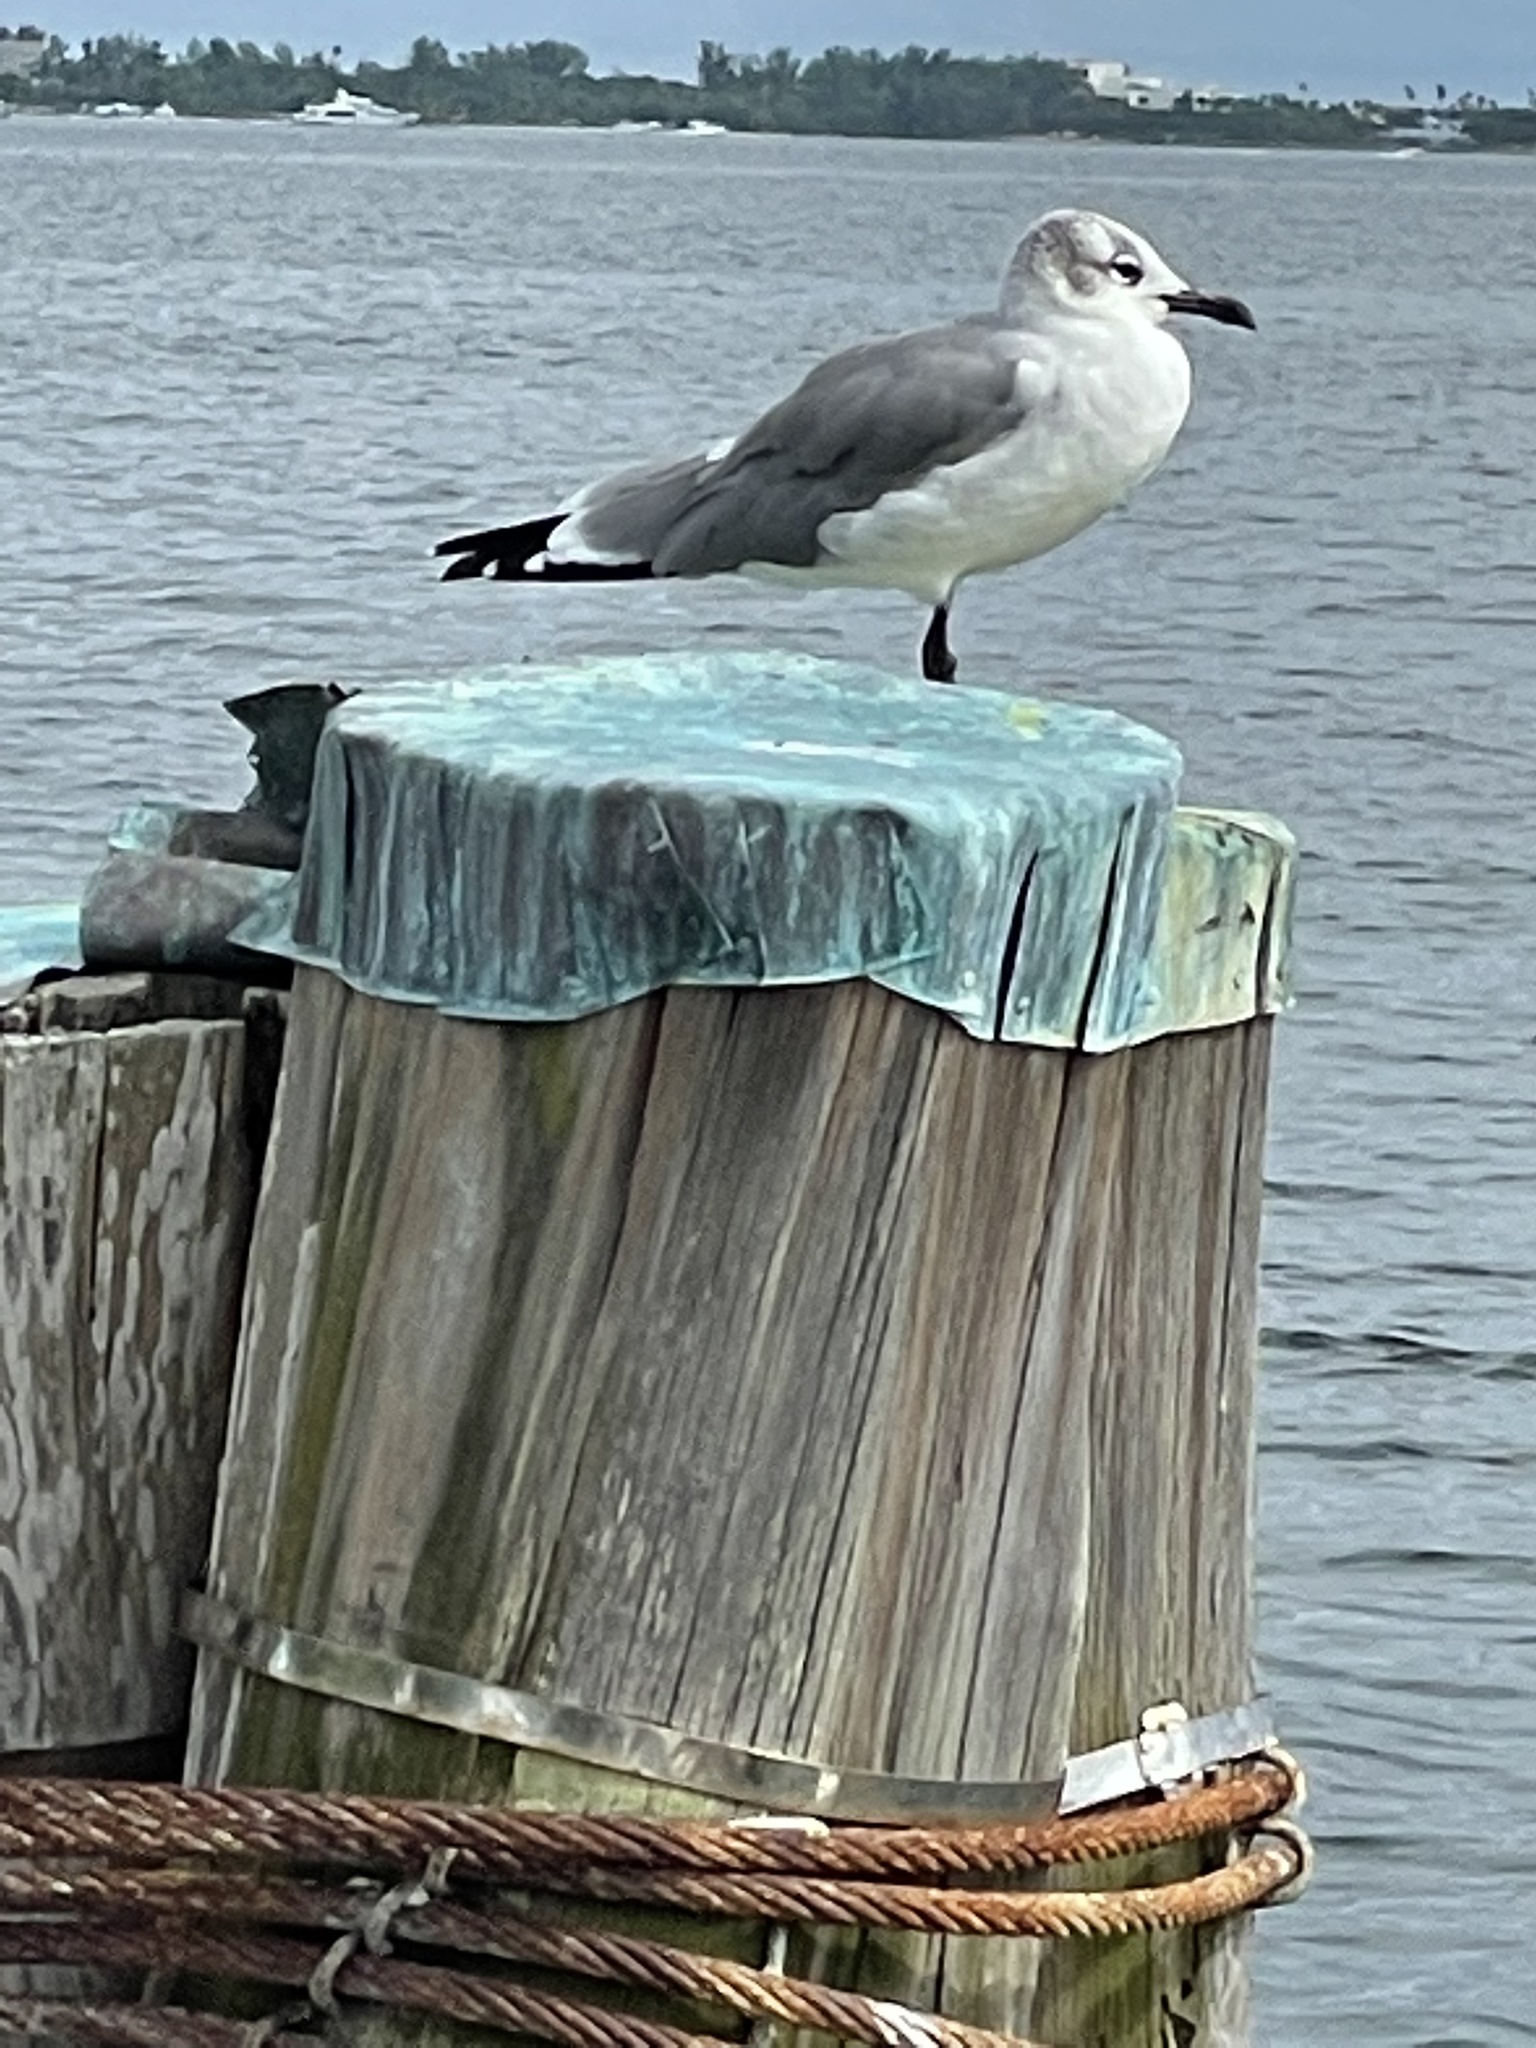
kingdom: Animalia
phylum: Chordata
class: Aves
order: Charadriiformes
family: Laridae
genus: Leucophaeus
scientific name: Leucophaeus atricilla
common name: Laughing gull
